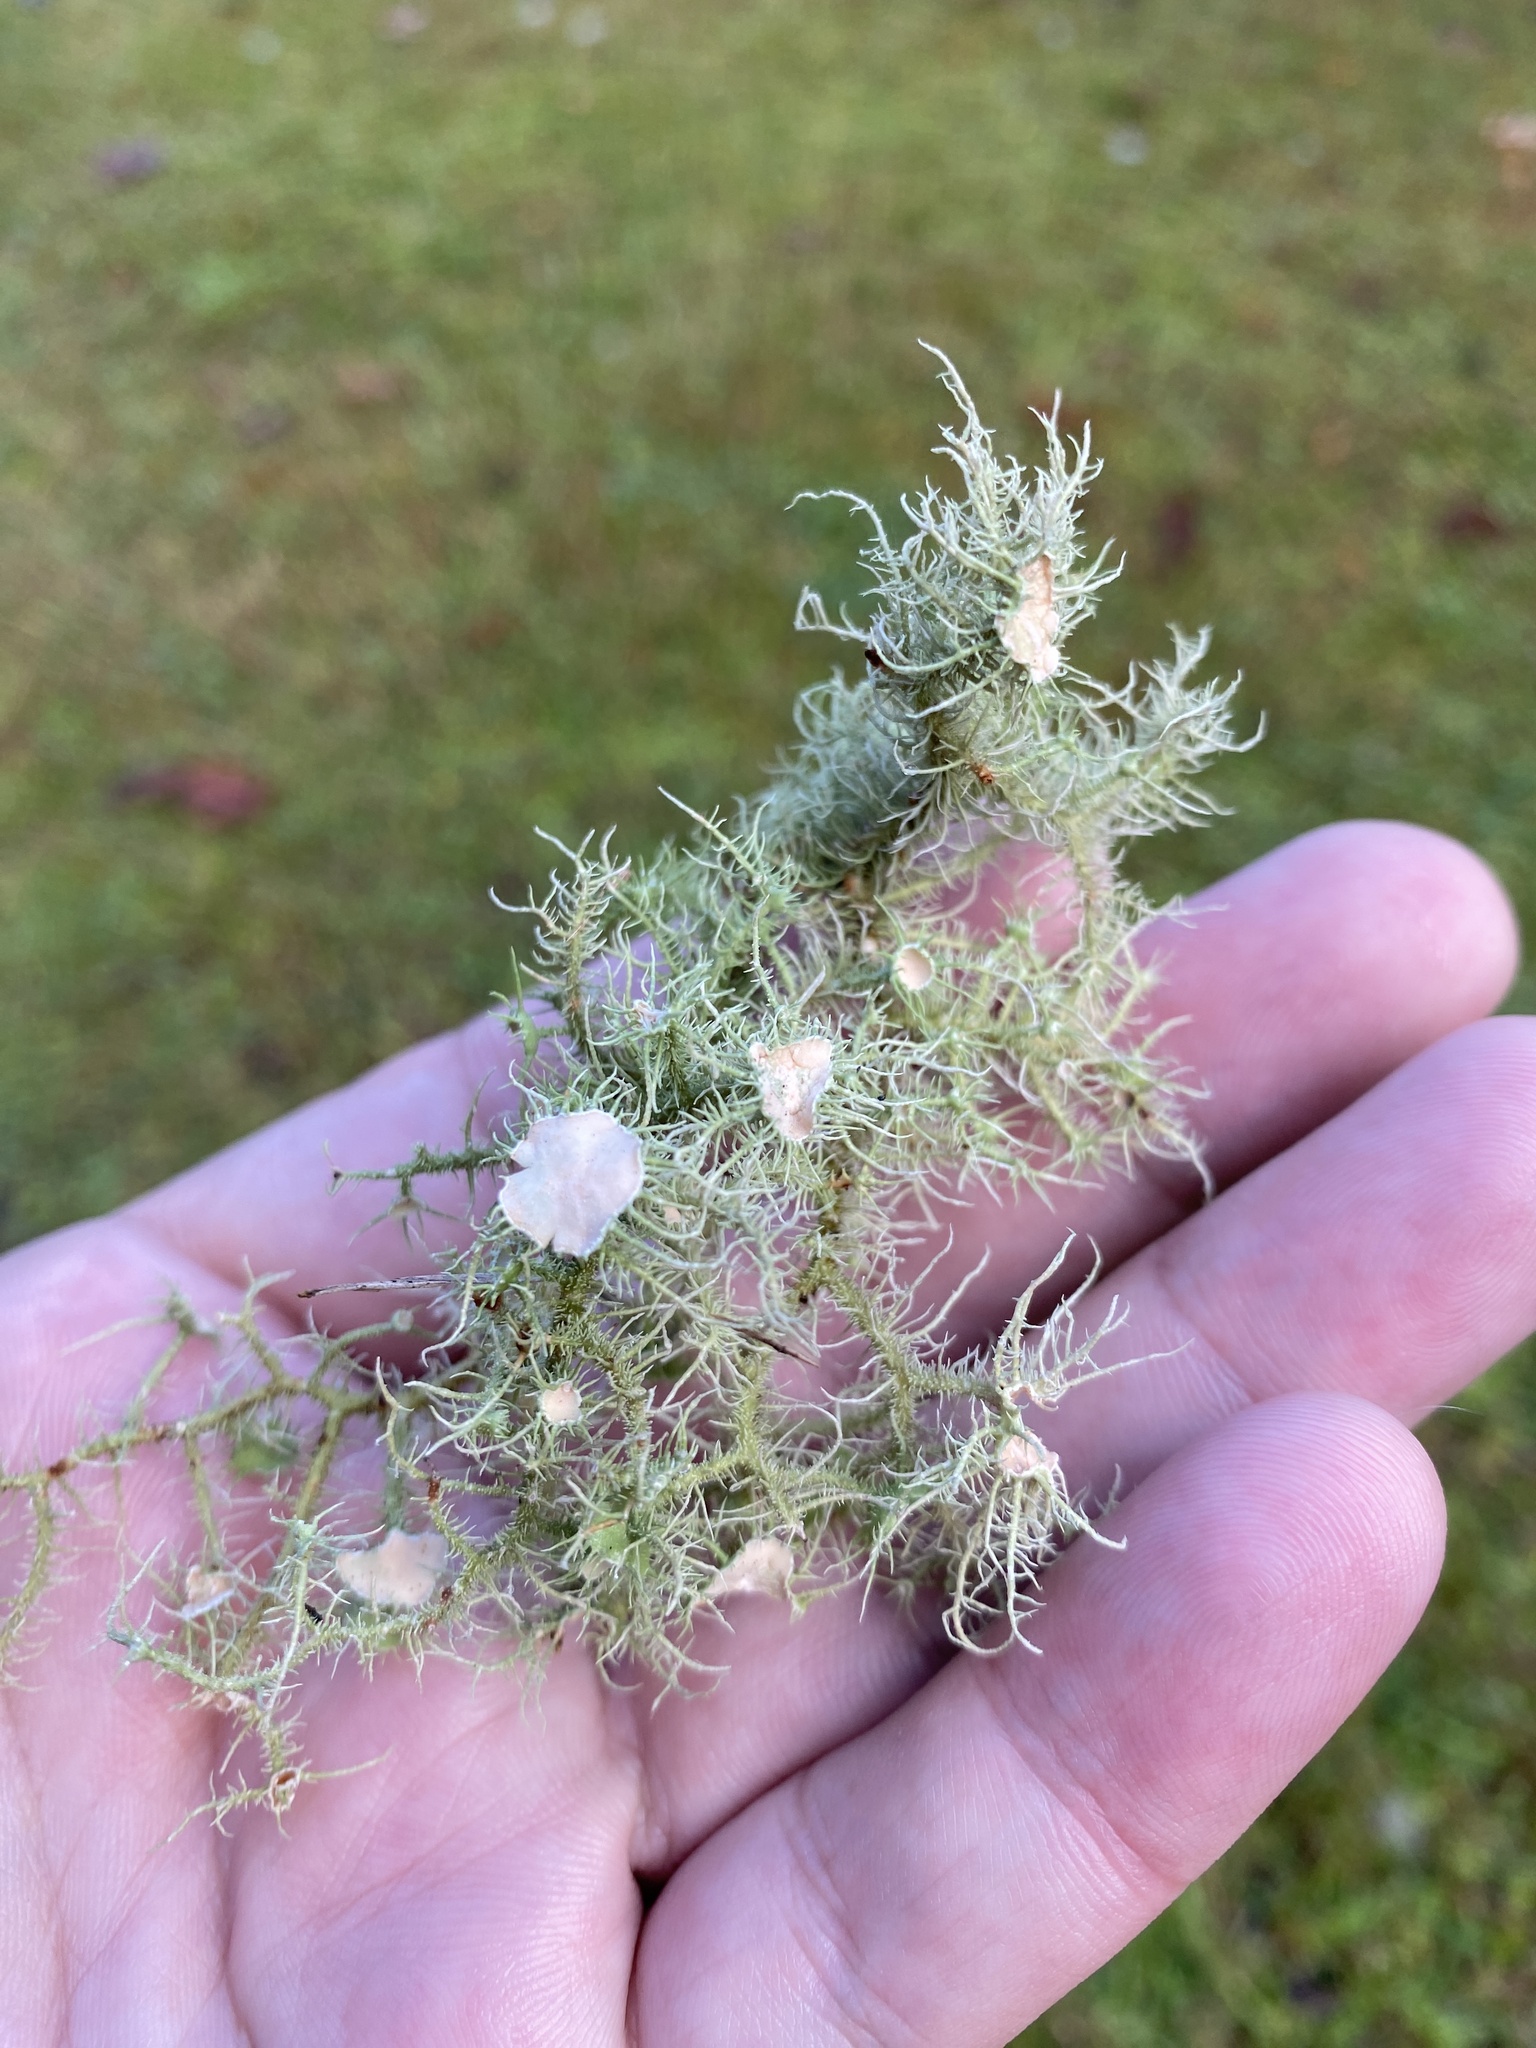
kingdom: Fungi
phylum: Ascomycota
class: Lecanoromycetes
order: Lecanorales
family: Parmeliaceae
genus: Usnea
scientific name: Usnea strigosa
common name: Bushy beard lichen
